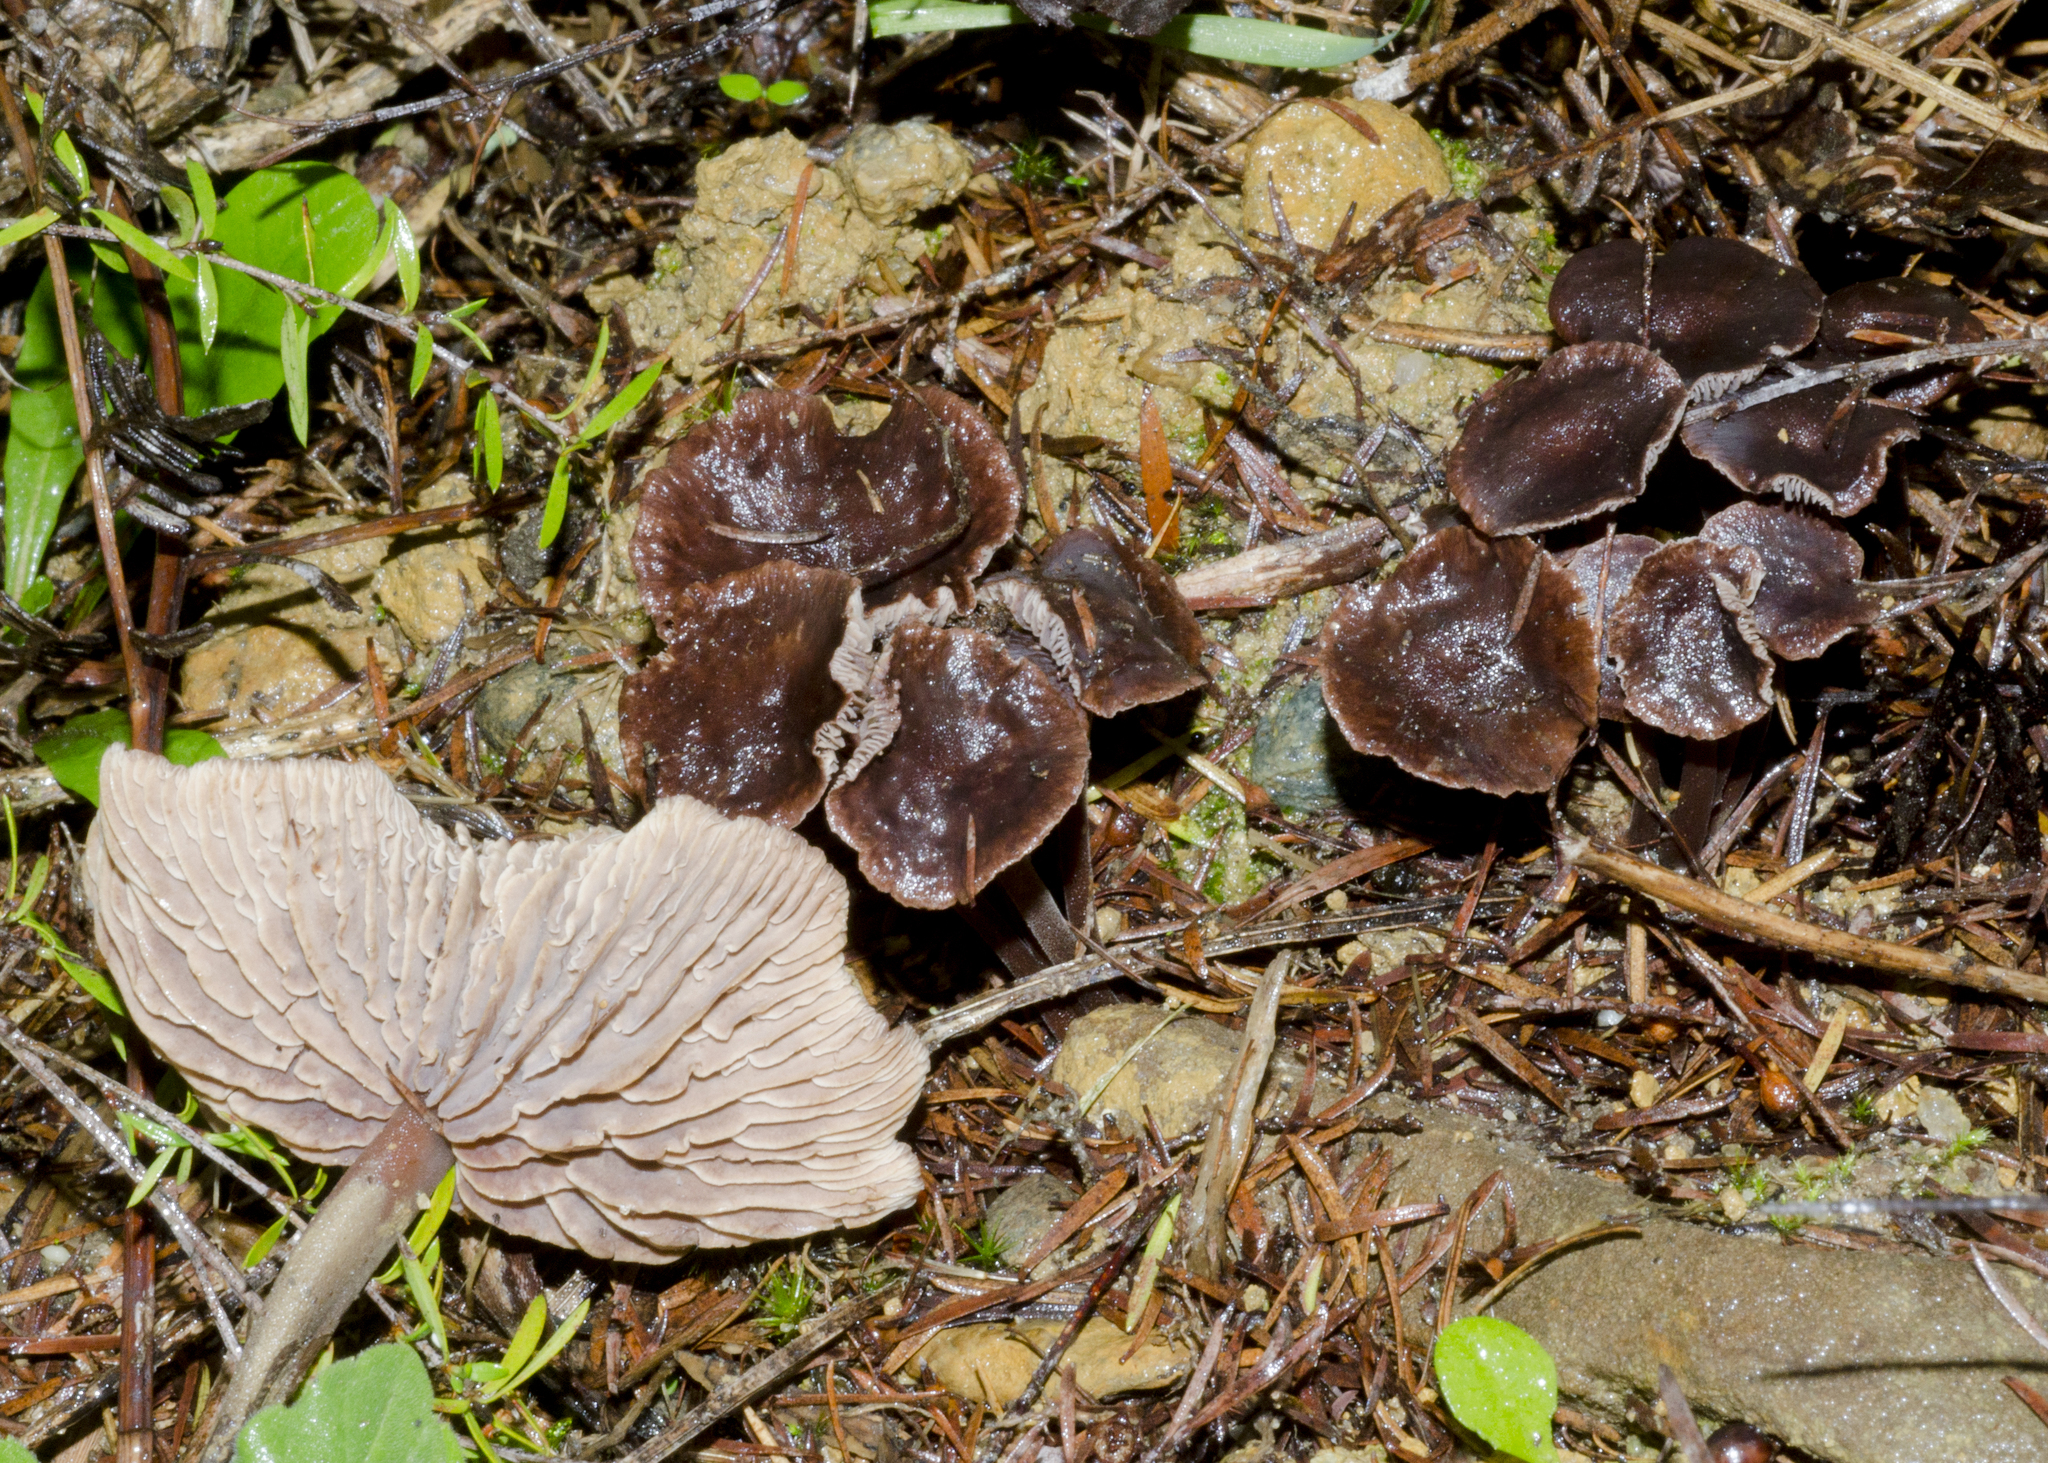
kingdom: Fungi
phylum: Basidiomycota
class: Agaricomycetes
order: Agaricales
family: Omphalotaceae
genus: Collybiopsis
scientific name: Collybiopsis villosipes
